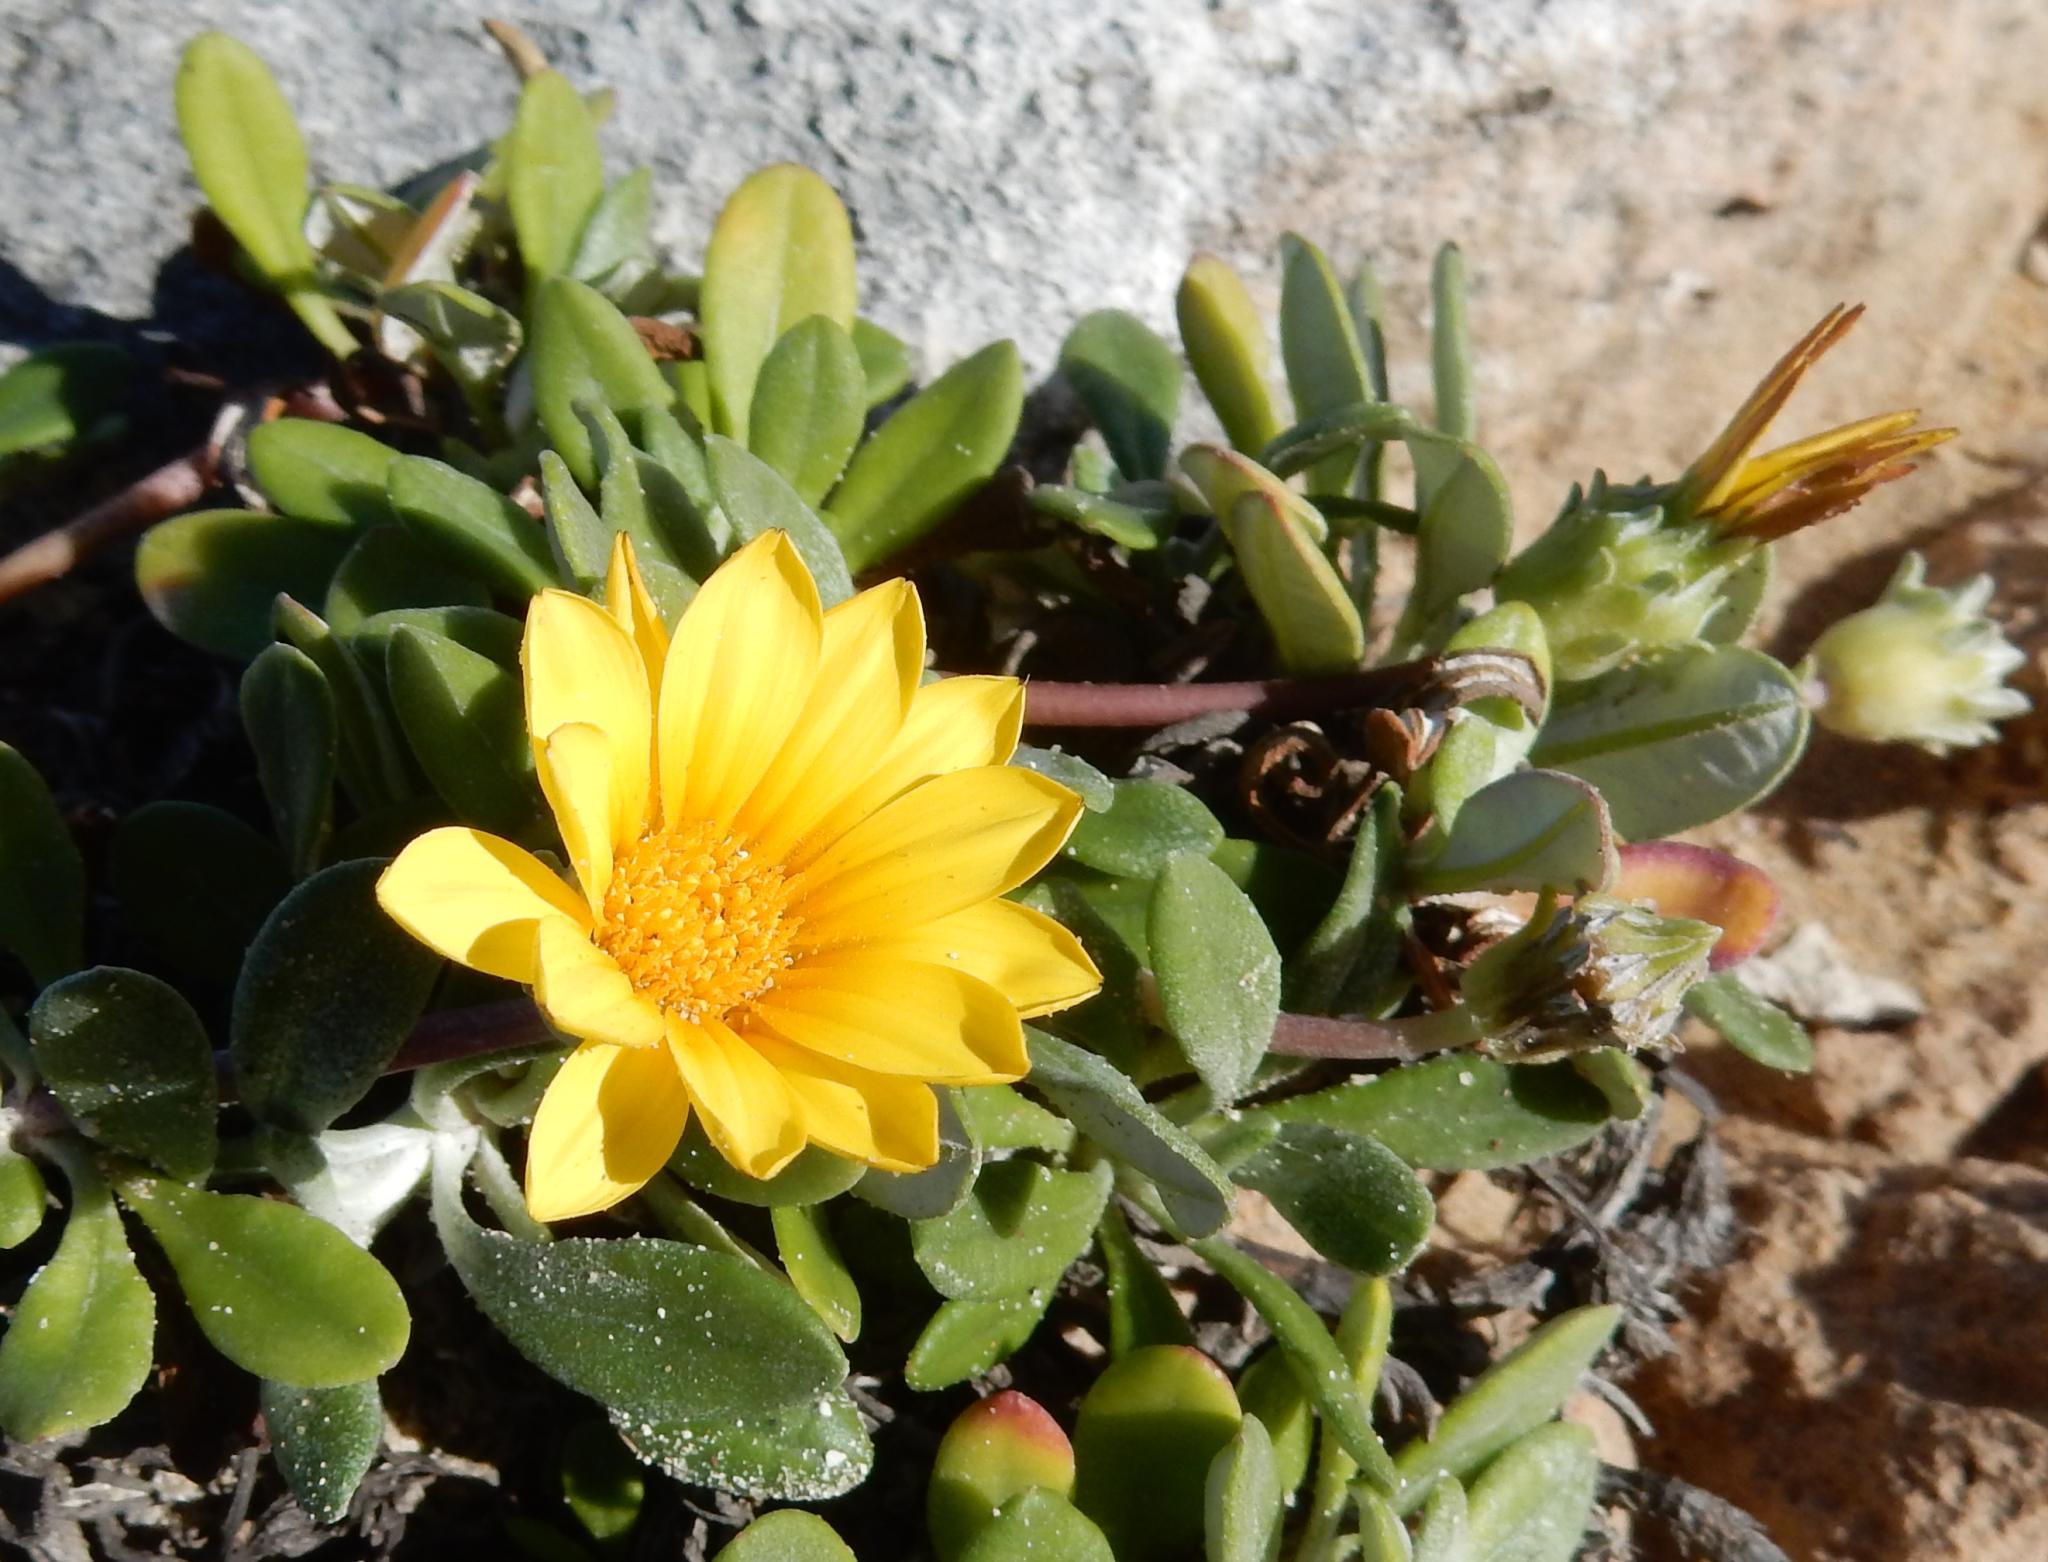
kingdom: Plantae
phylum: Tracheophyta
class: Magnoliopsida
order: Asterales
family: Asteraceae
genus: Gazania
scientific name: Gazania rigens
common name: Treasureflower
